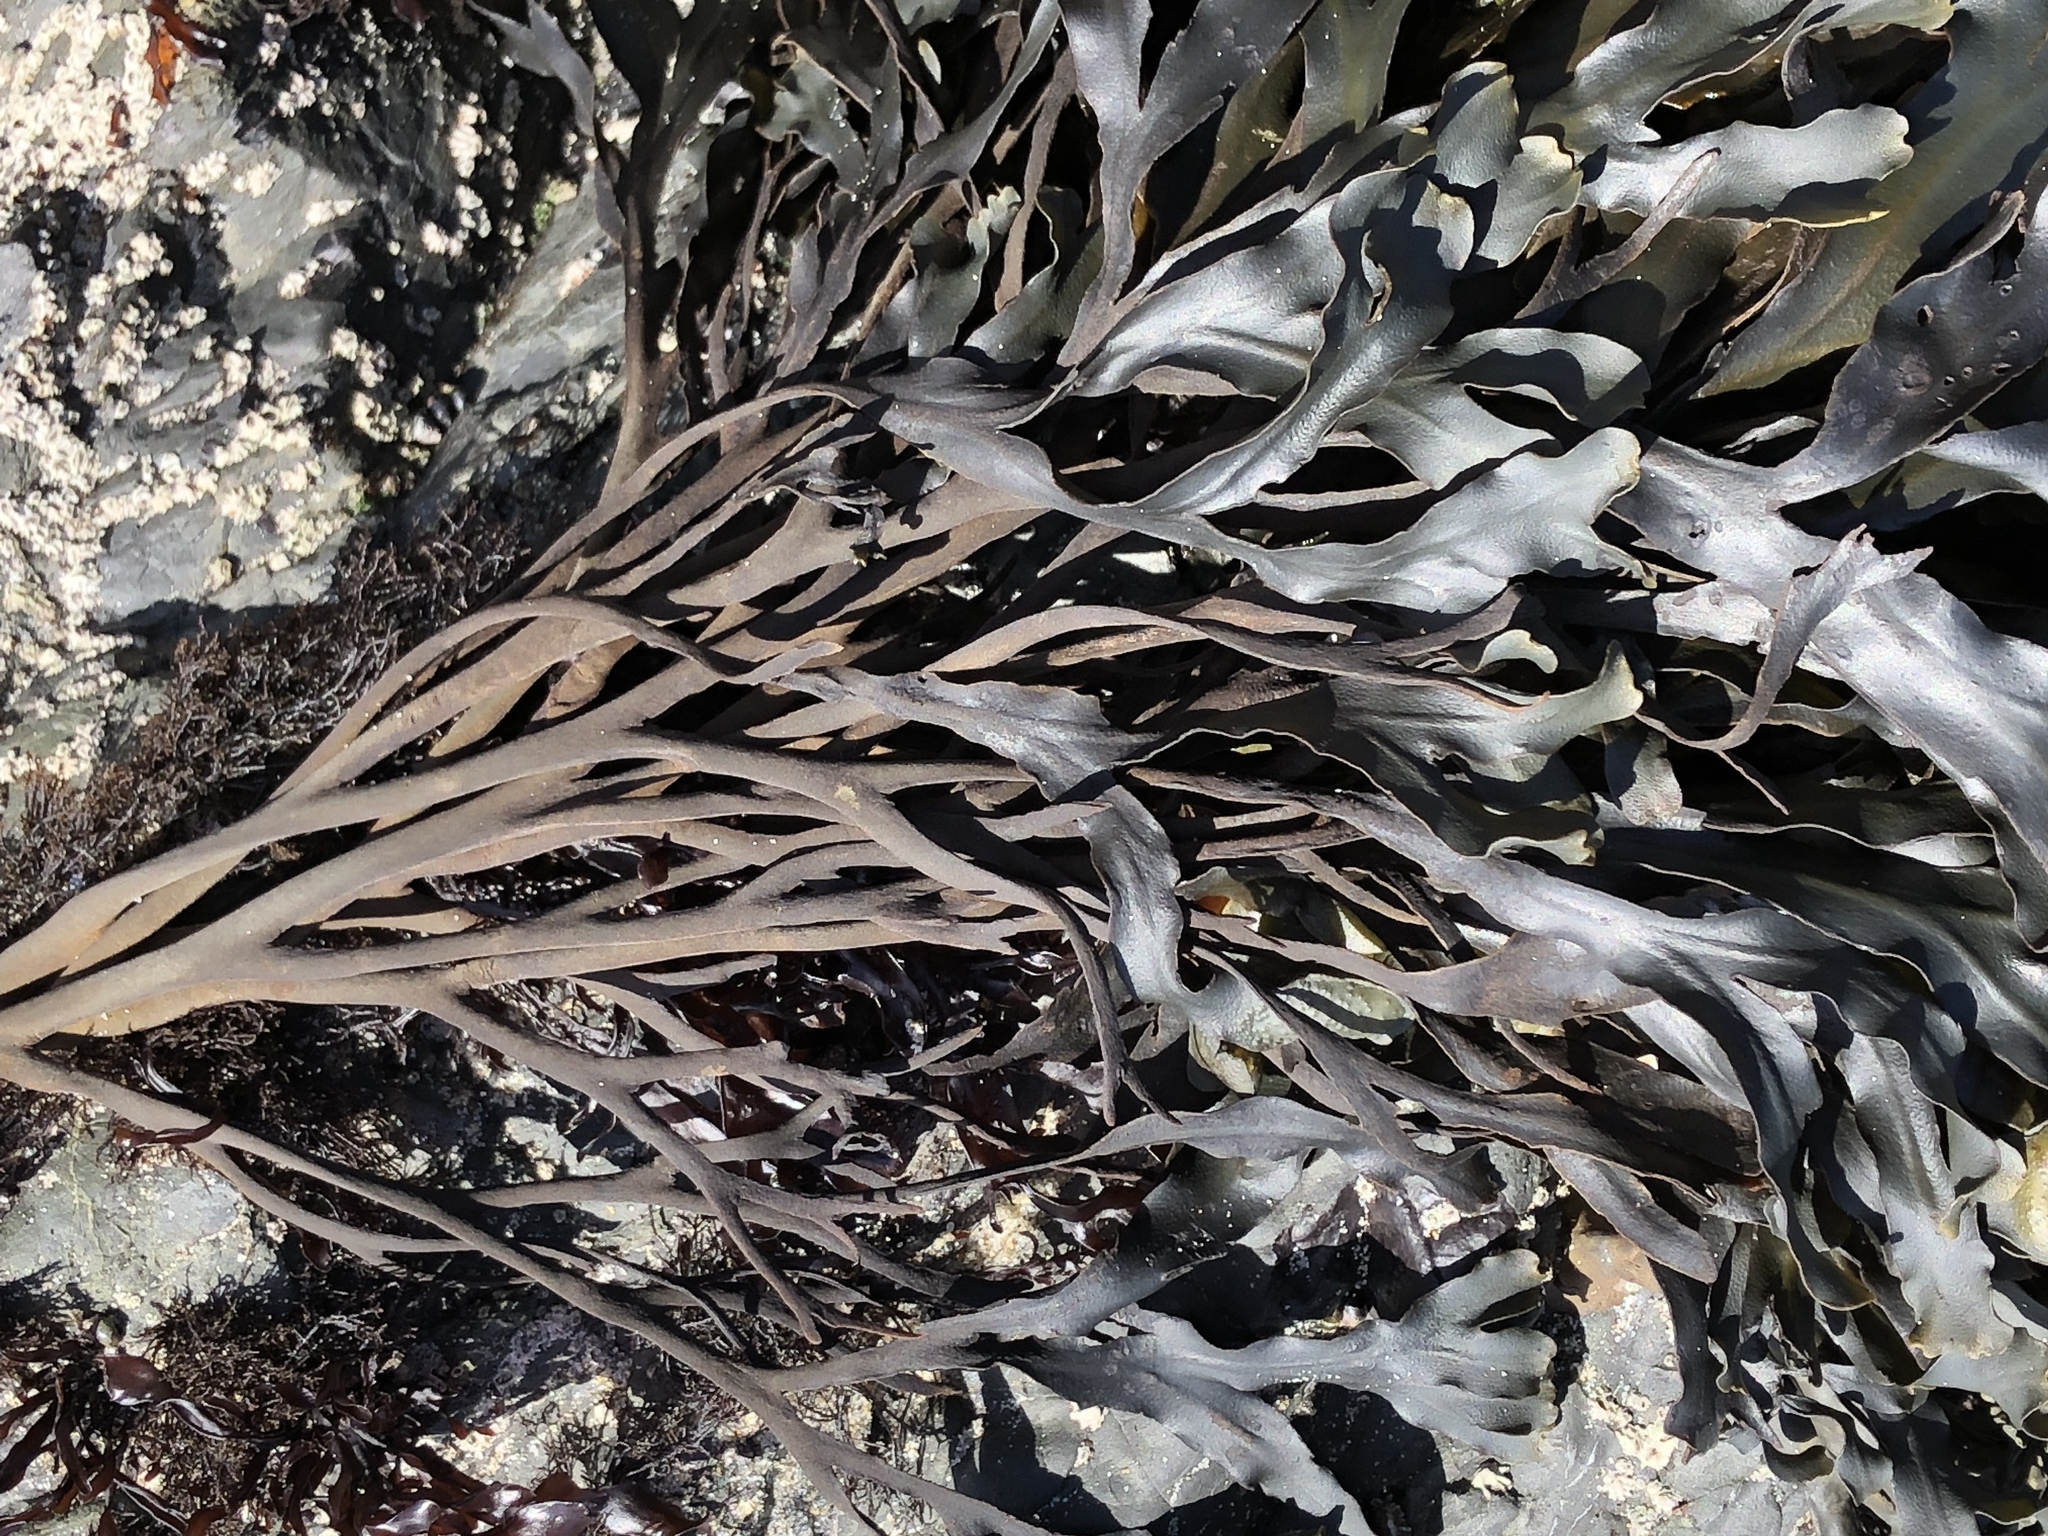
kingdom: Chromista
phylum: Ochrophyta
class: Phaeophyceae
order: Fucales
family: Fucaceae
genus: Fucus
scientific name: Fucus distichus
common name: Rockweed
